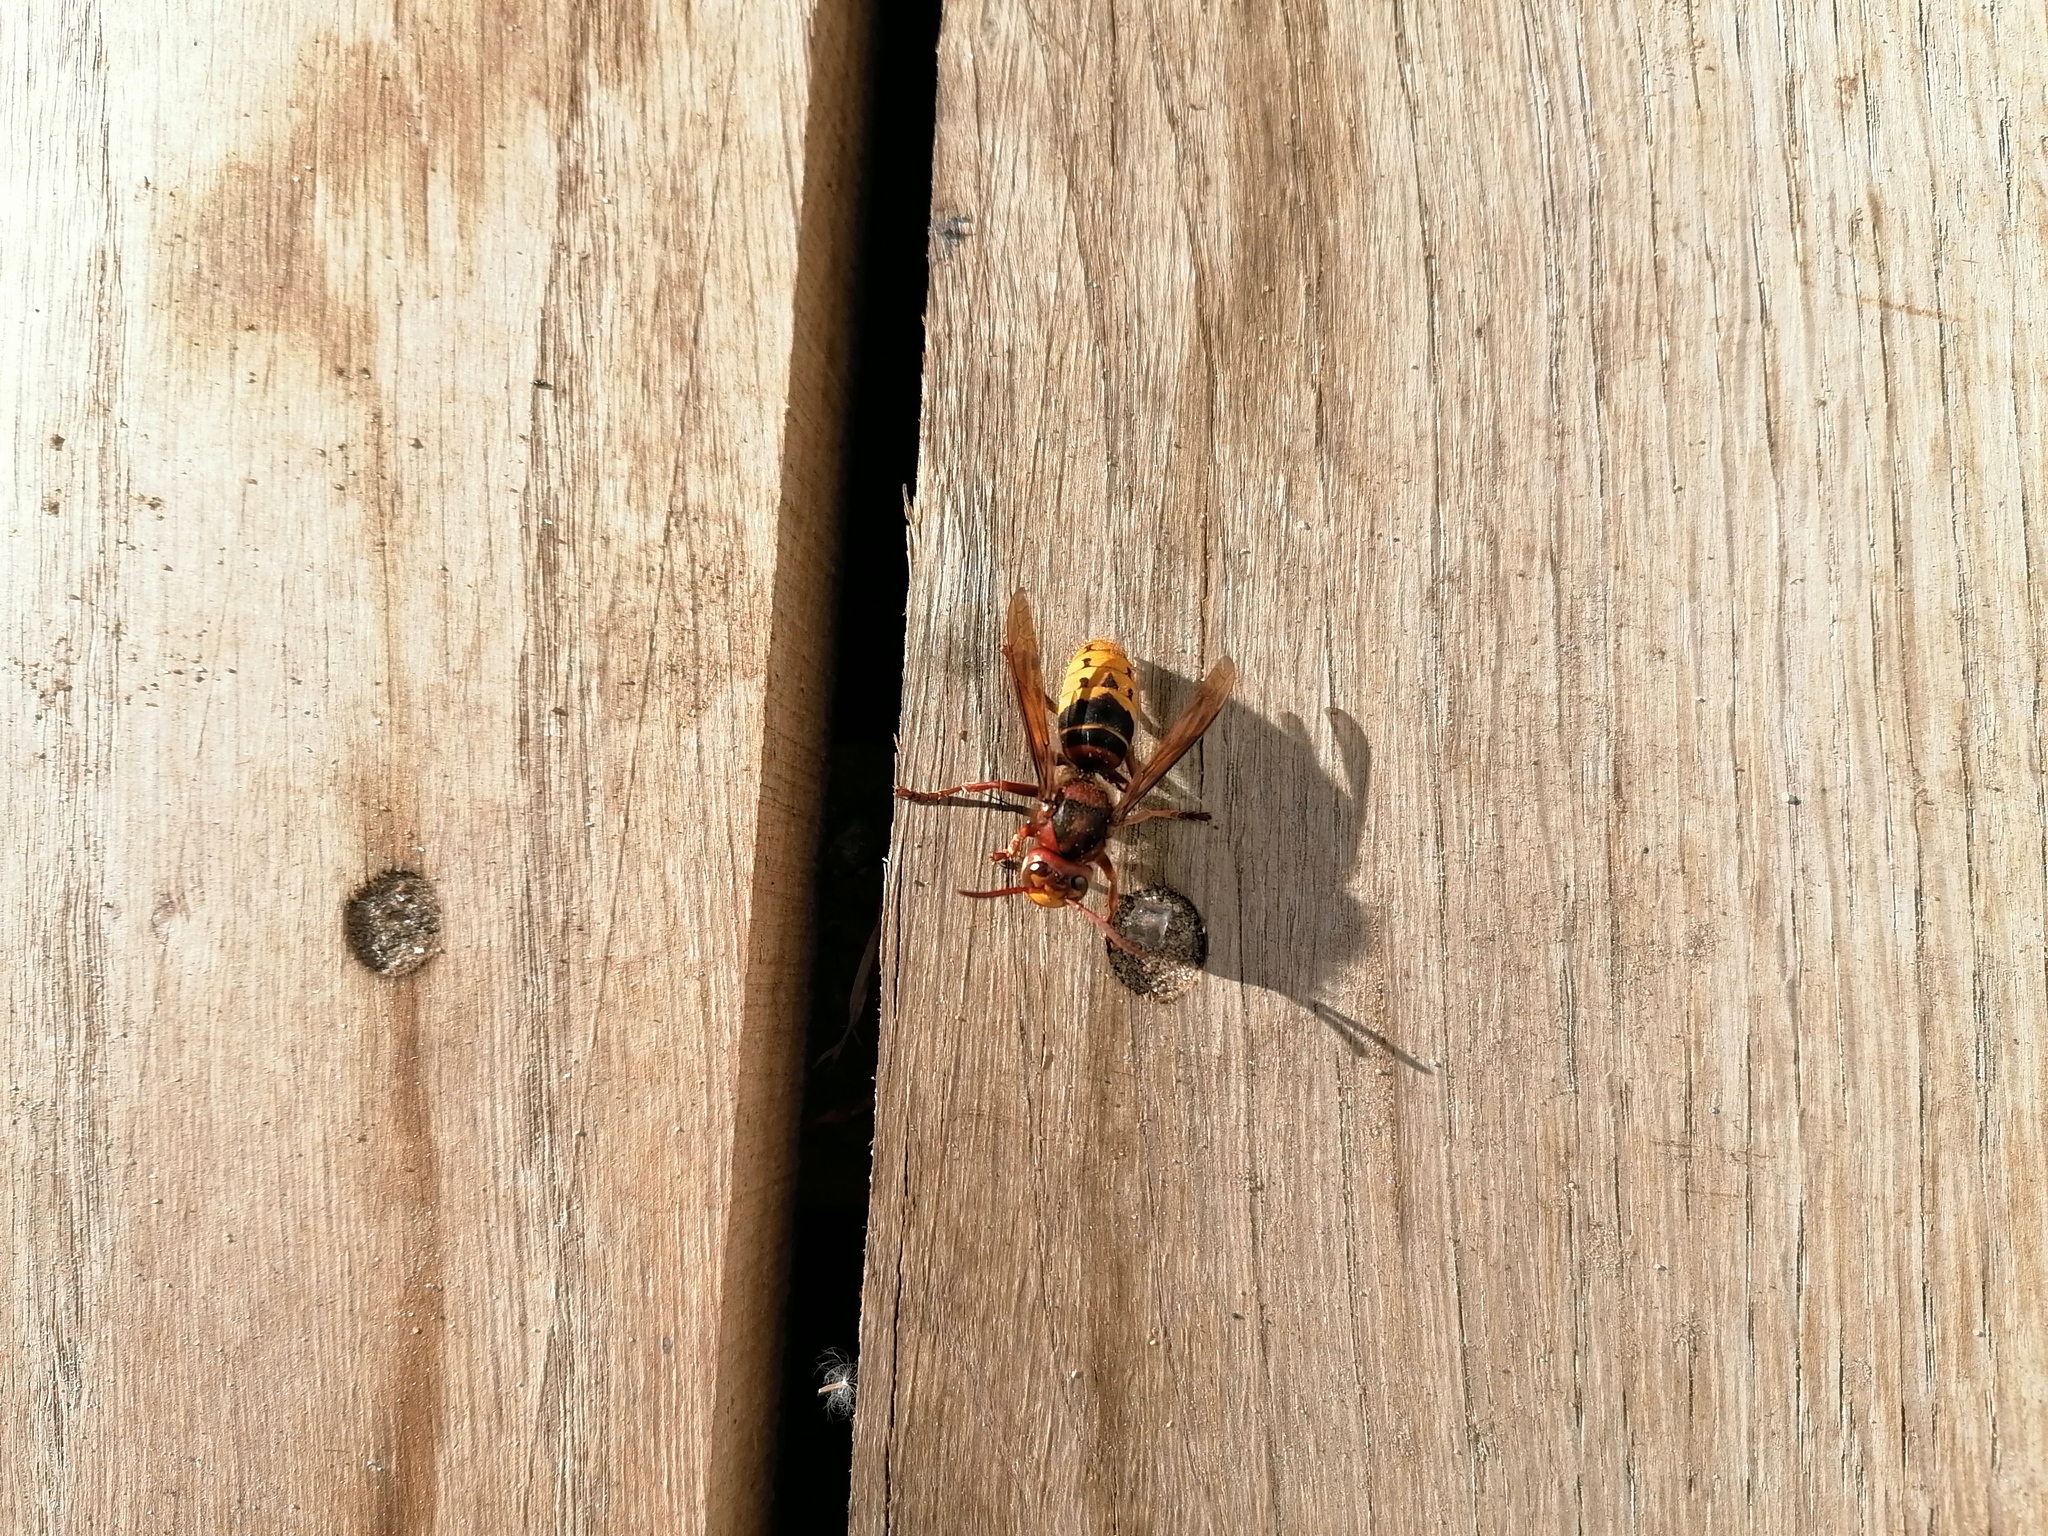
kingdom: Animalia
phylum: Arthropoda
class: Insecta
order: Hymenoptera
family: Vespidae
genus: Vespa
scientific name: Vespa crabro
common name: Hornet
